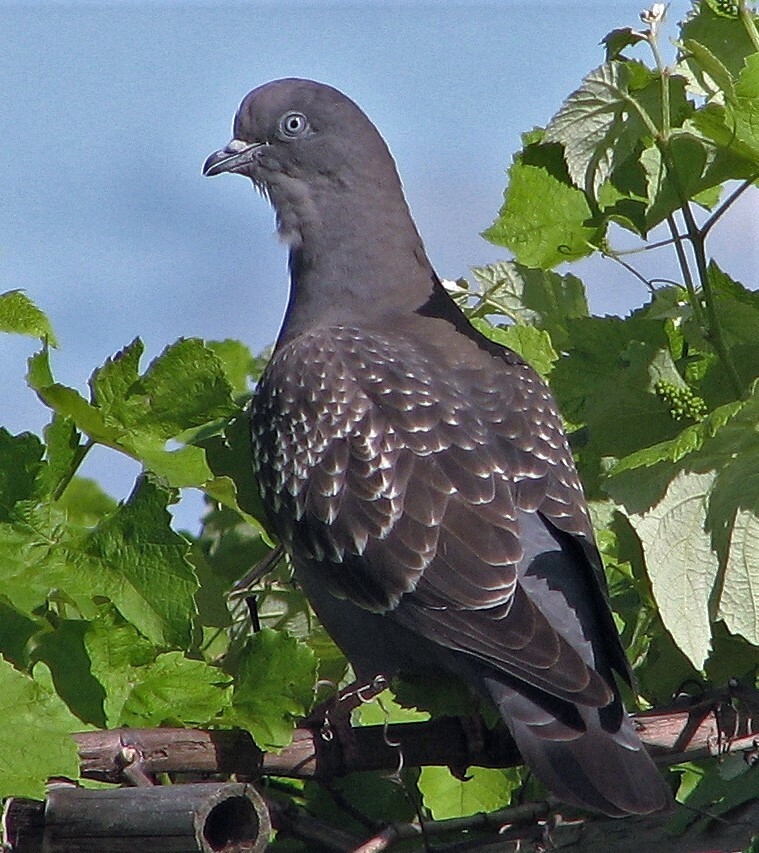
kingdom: Animalia
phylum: Chordata
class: Aves
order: Columbiformes
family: Columbidae
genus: Patagioenas
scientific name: Patagioenas maculosa
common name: Spot-winged pigeon
